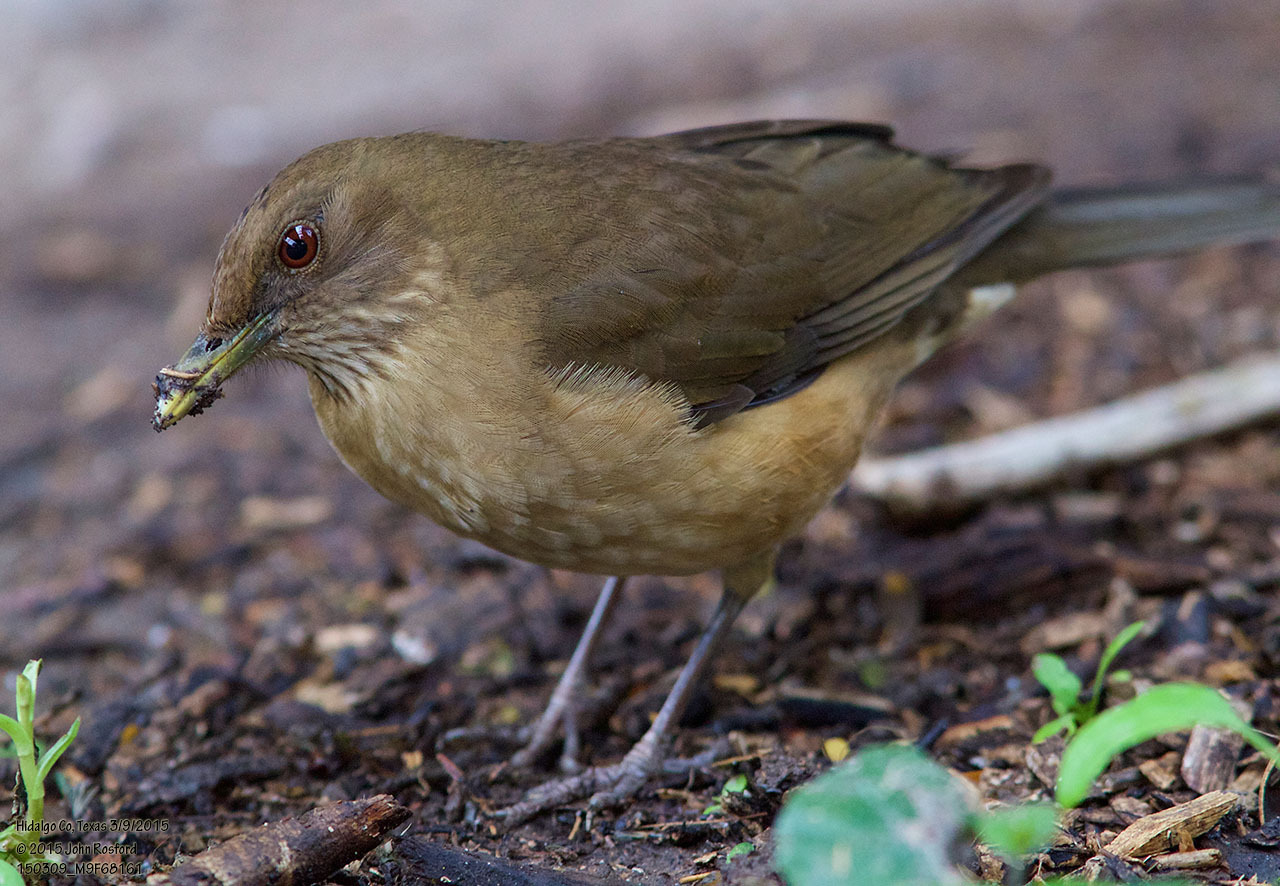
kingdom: Animalia
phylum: Chordata
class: Aves
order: Passeriformes
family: Turdidae
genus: Turdus
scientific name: Turdus grayi
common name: Clay-colored thrush
